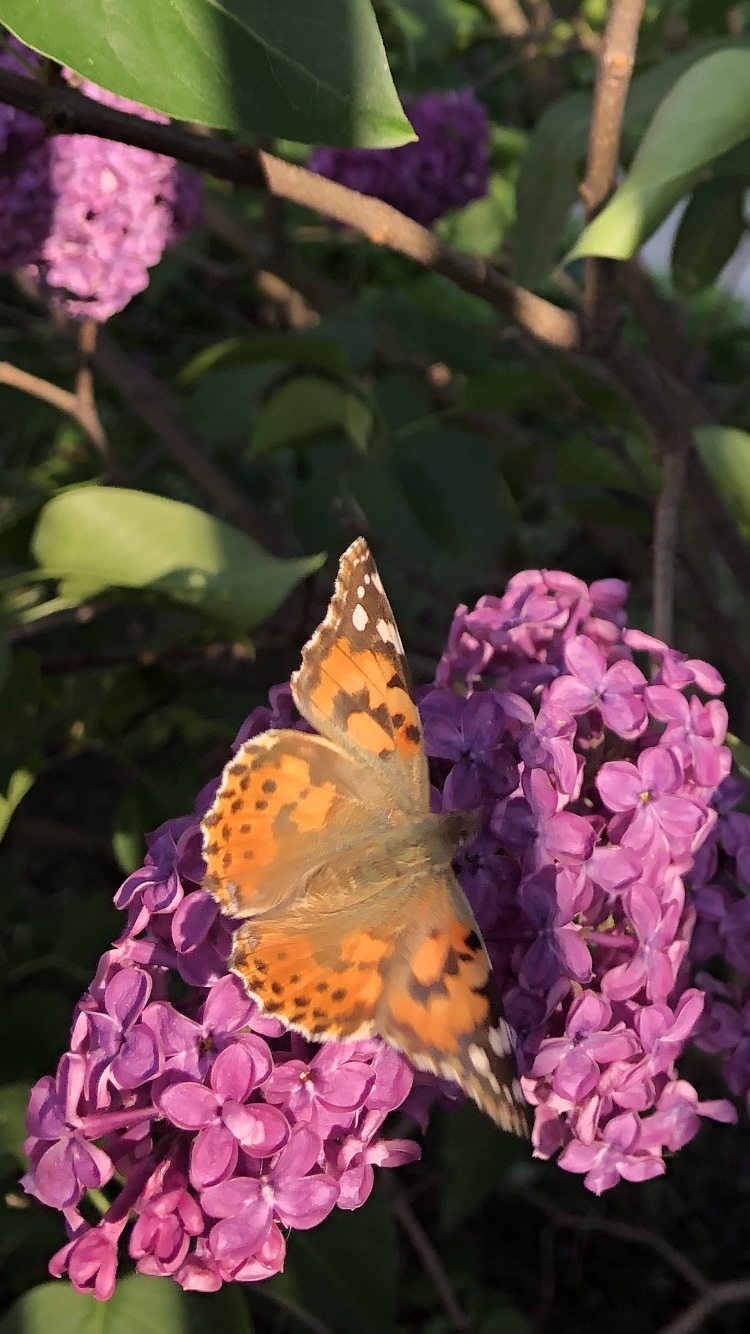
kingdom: Animalia
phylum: Arthropoda
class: Insecta
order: Lepidoptera
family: Nymphalidae
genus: Vanessa
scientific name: Vanessa cardui
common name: Painted lady
